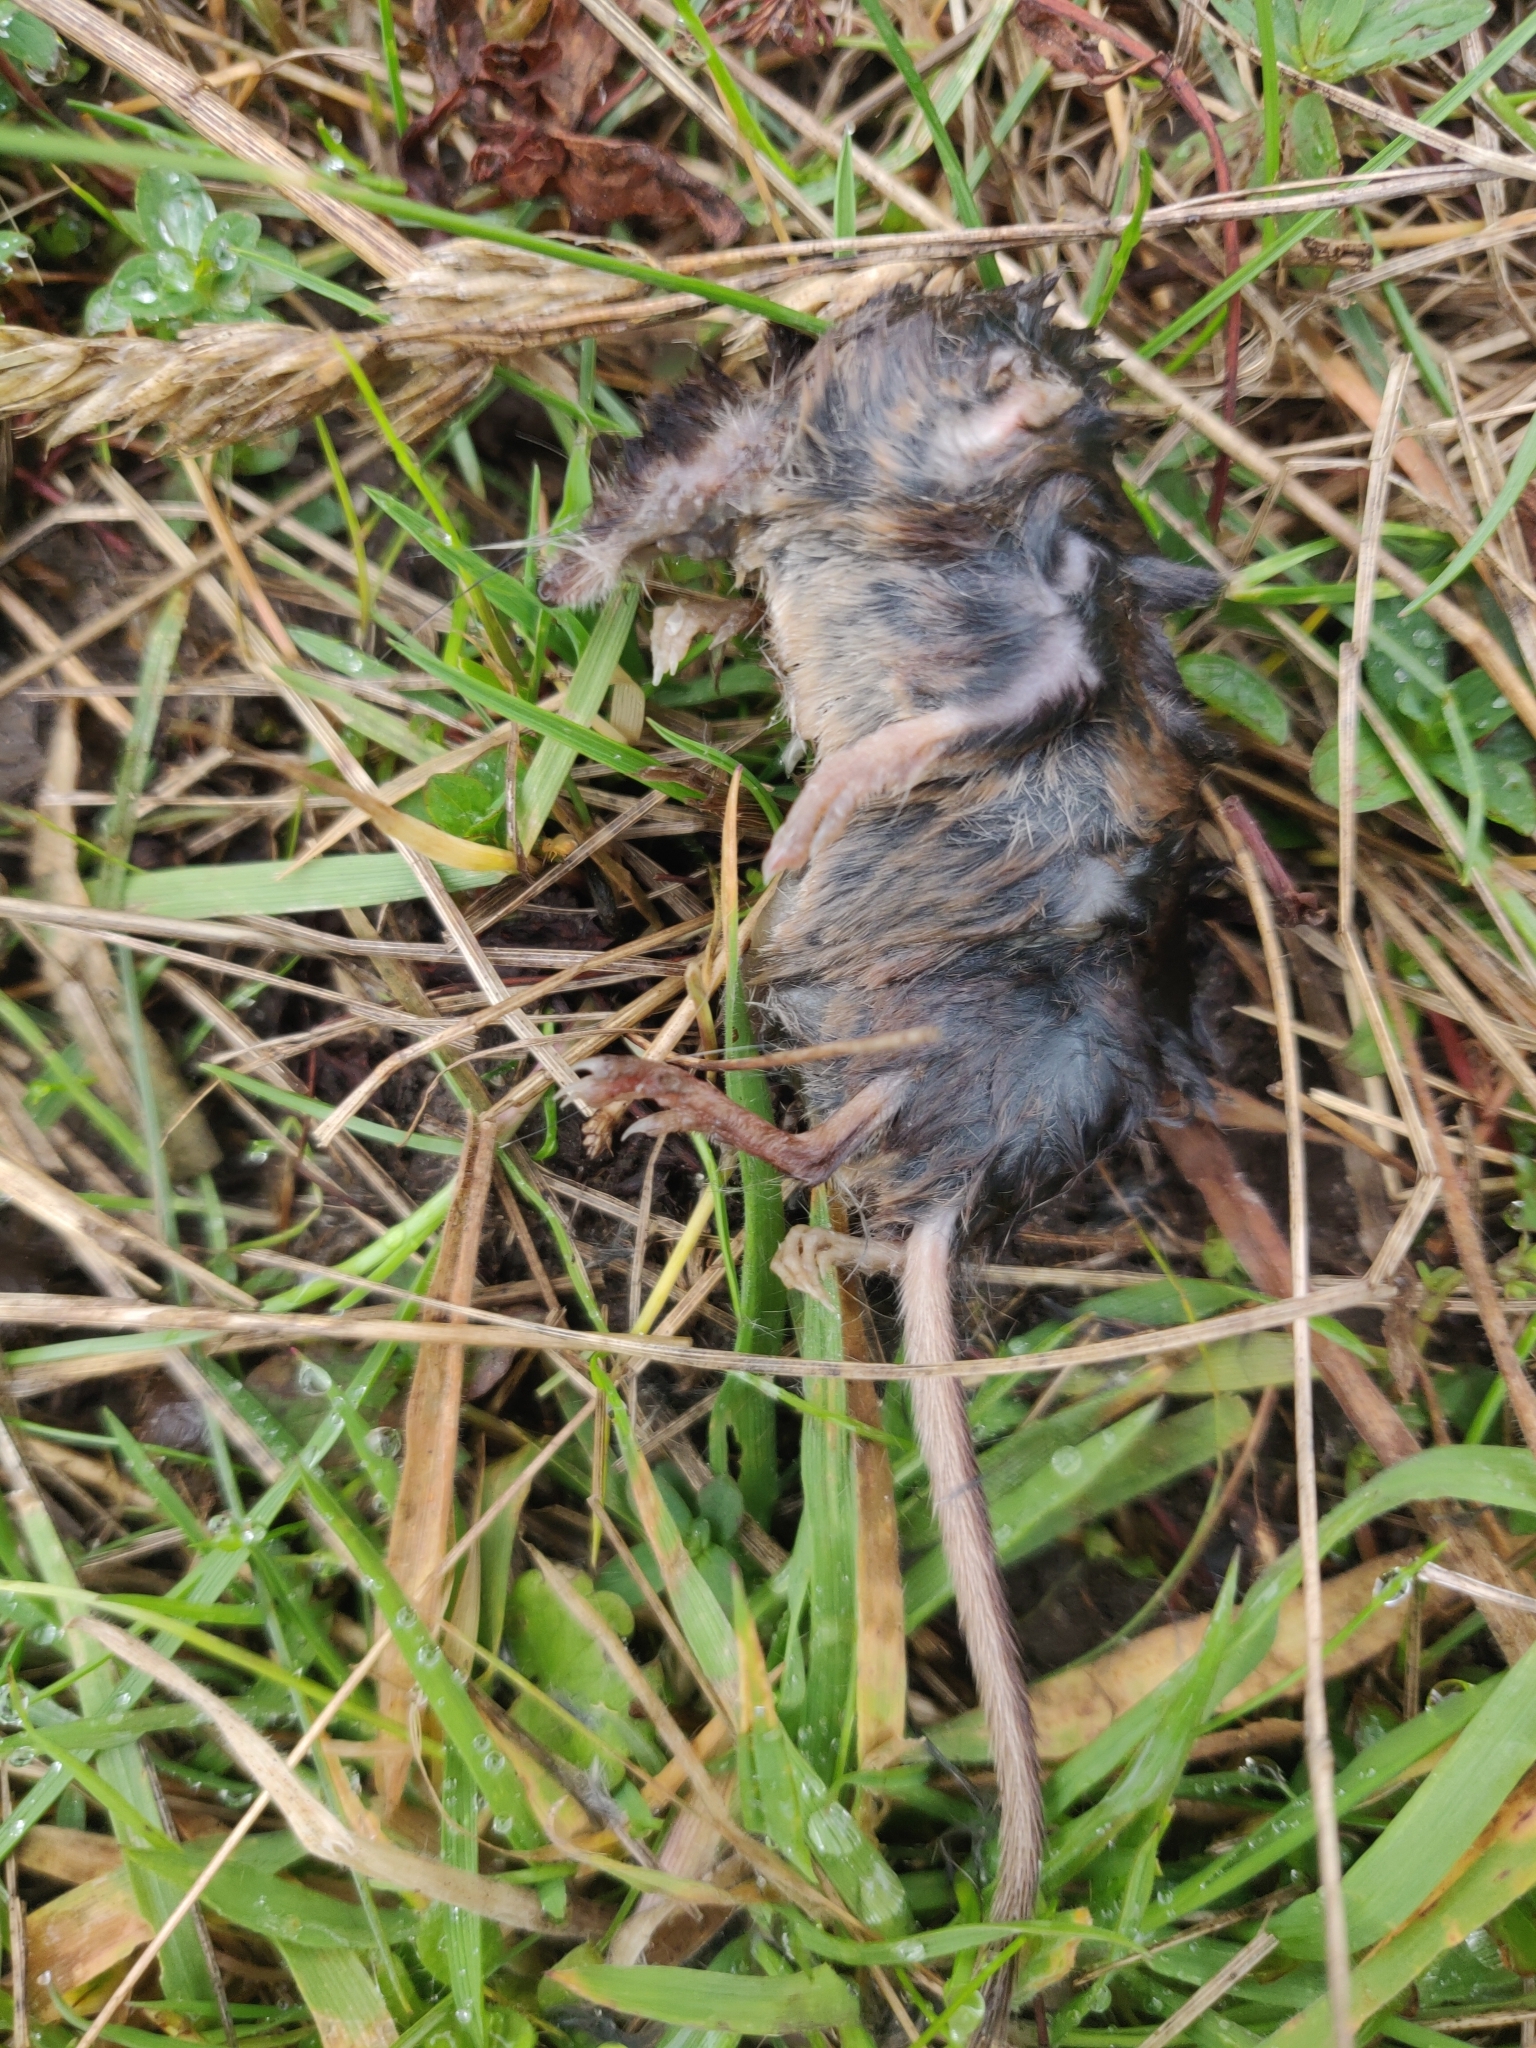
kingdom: Animalia
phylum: Chordata
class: Mammalia
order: Soricomorpha
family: Soricidae
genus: Sorex
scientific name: Sorex araneus
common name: Common shrew
